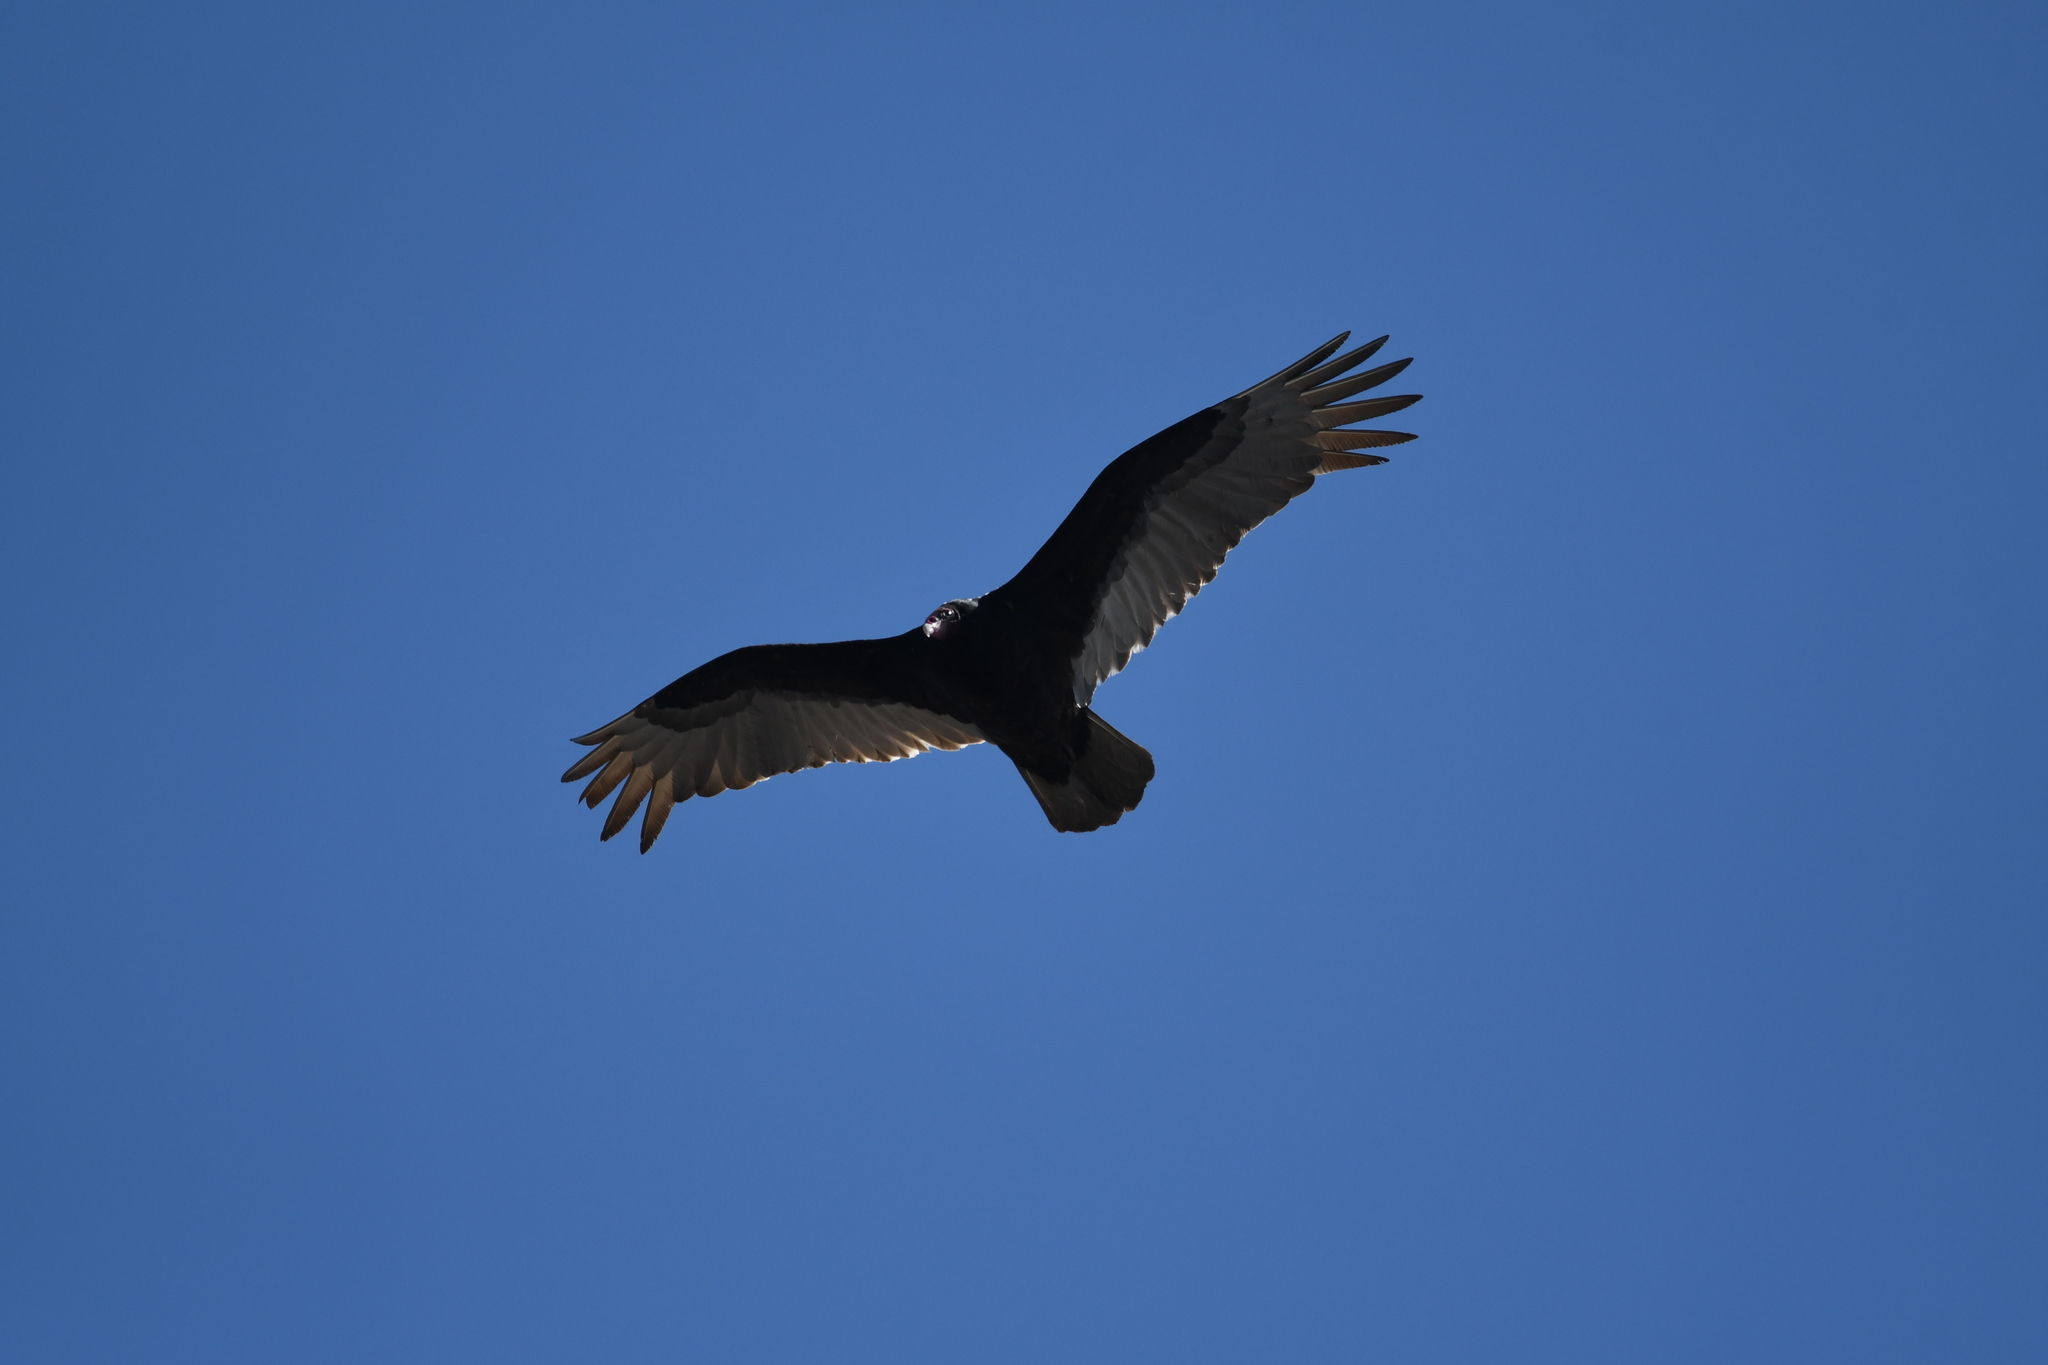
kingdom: Animalia
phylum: Chordata
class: Aves
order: Accipitriformes
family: Cathartidae
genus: Cathartes
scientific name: Cathartes aura
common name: Turkey vulture
